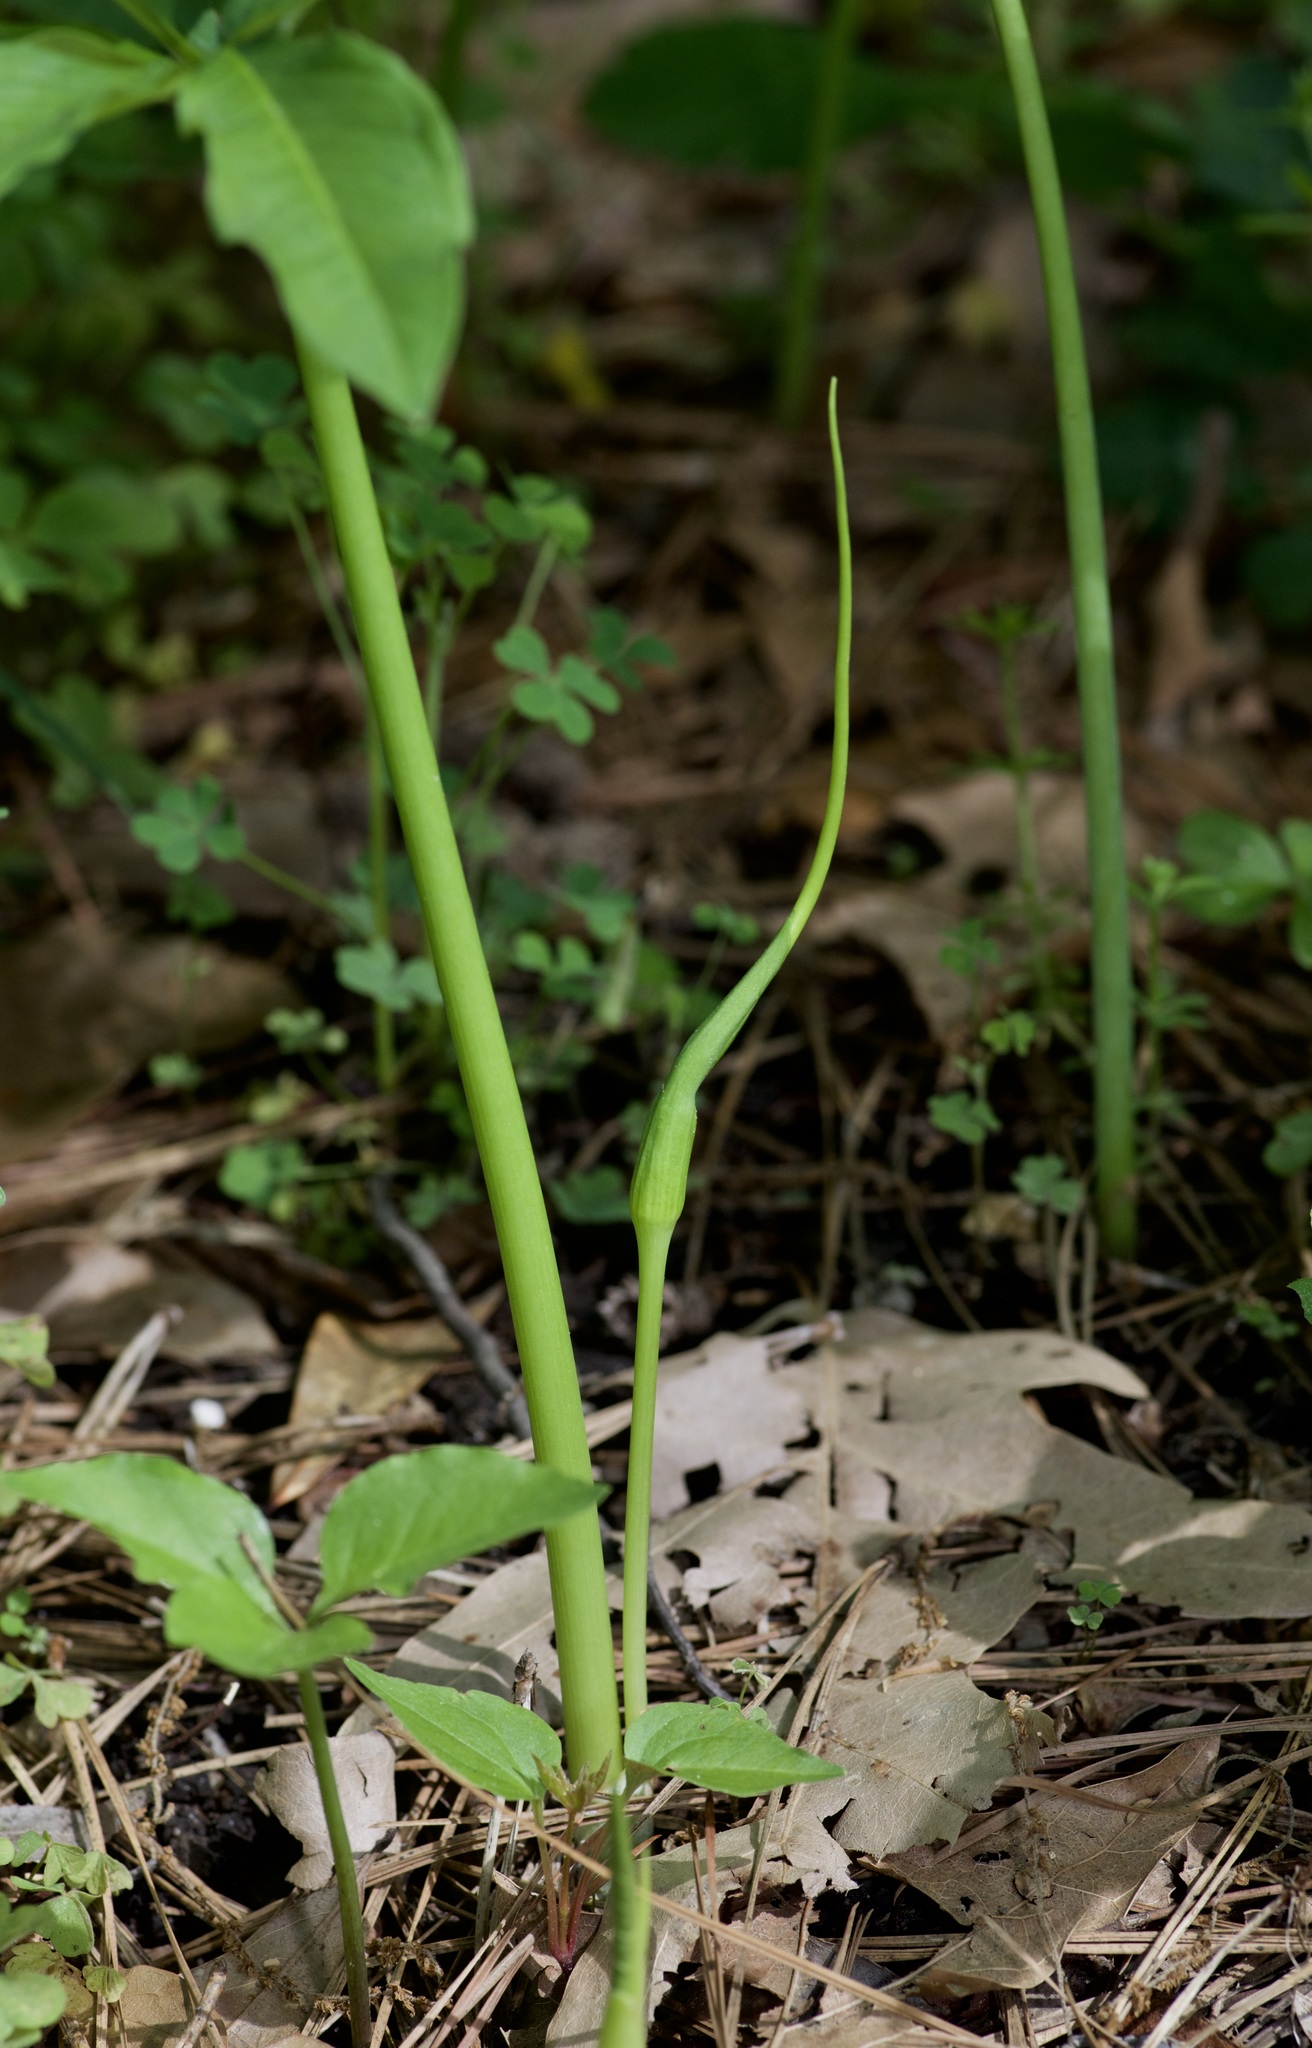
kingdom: Plantae
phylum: Tracheophyta
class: Liliopsida
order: Alismatales
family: Araceae
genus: Arisaema
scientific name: Arisaema dracontium
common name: Dragon-arum
